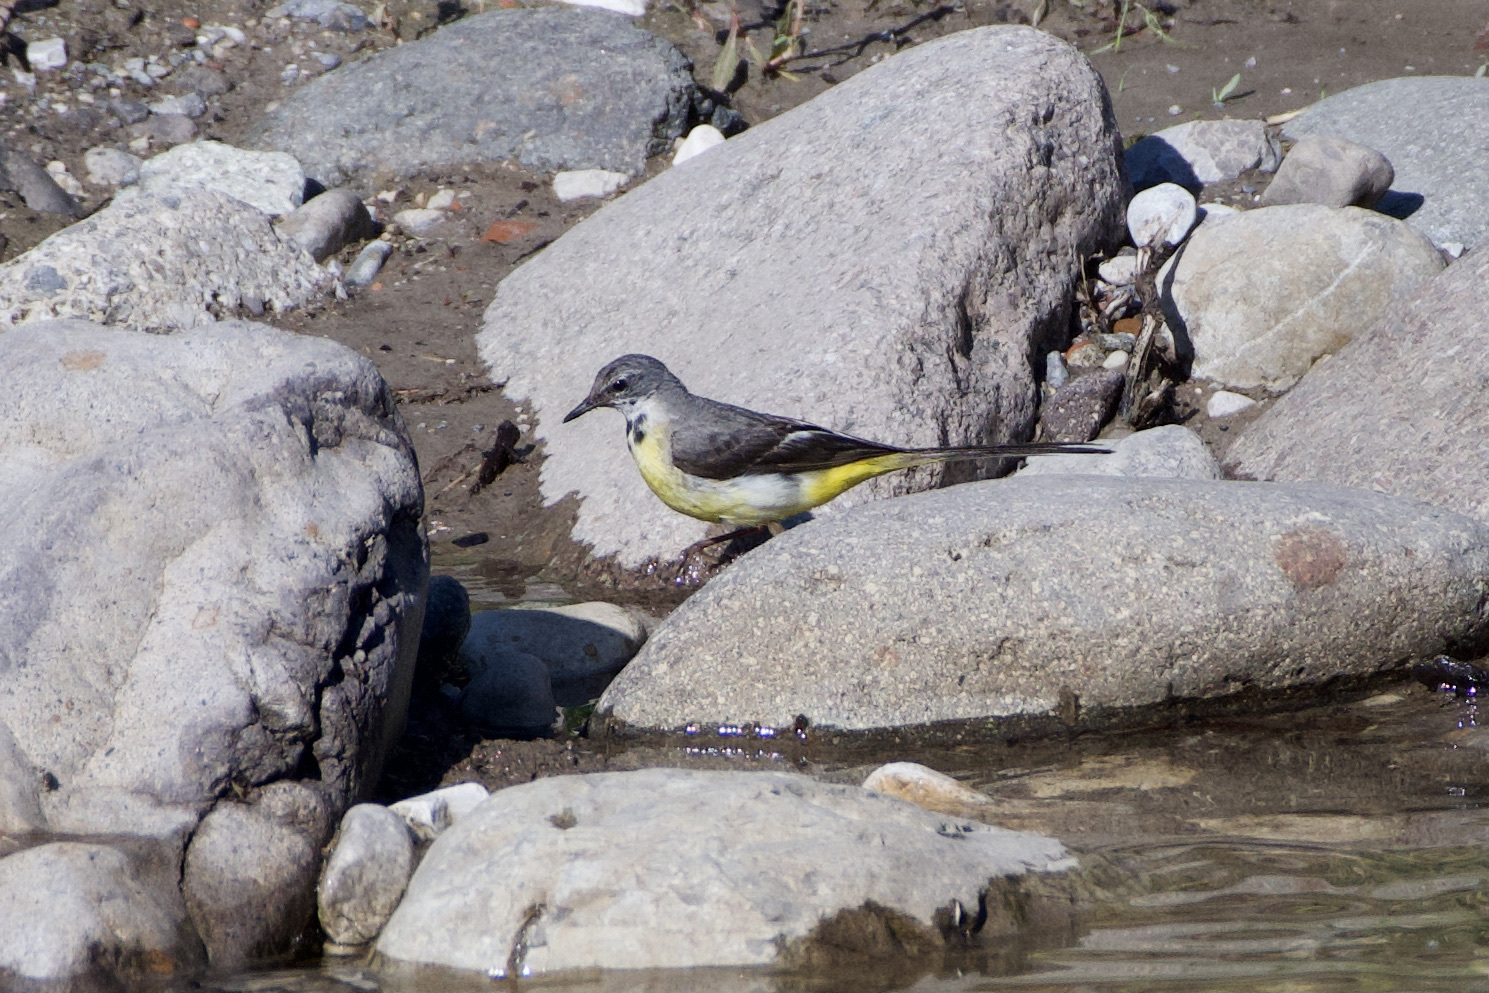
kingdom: Animalia
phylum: Chordata
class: Aves
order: Passeriformes
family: Motacillidae
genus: Motacilla
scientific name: Motacilla cinerea
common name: Grey wagtail
